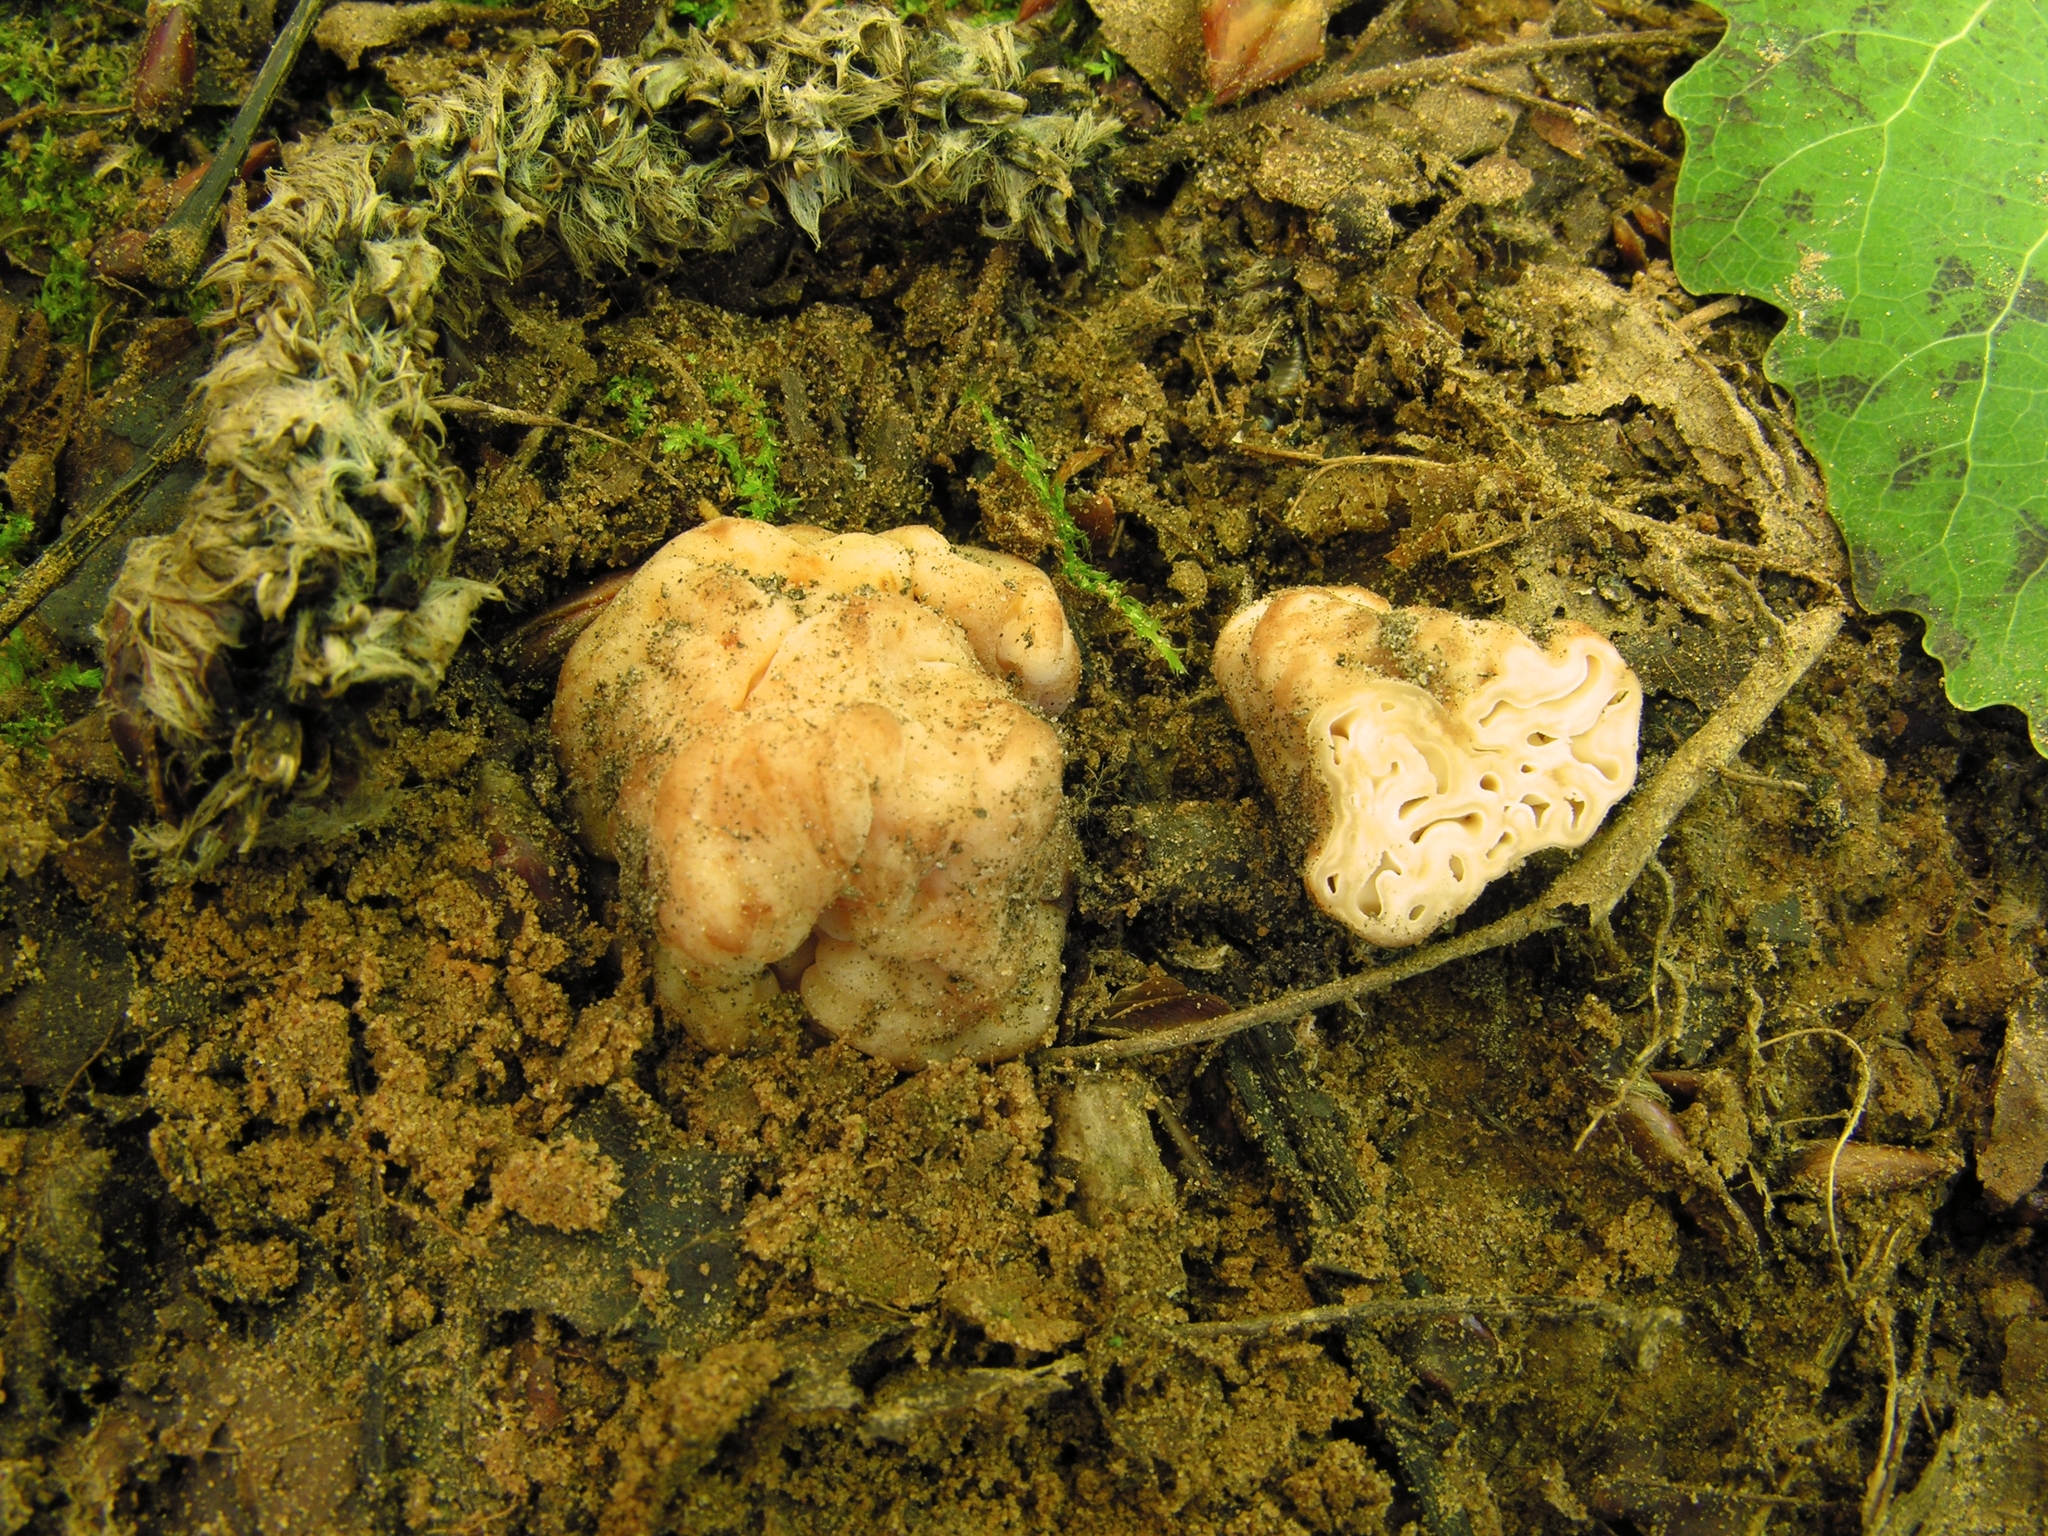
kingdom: Fungi
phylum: Ascomycota
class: Pezizomycetes
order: Pezizales
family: Discinaceae
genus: Hydnotrya
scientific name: Hydnotrya tulasnei
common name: Red fold truffle
